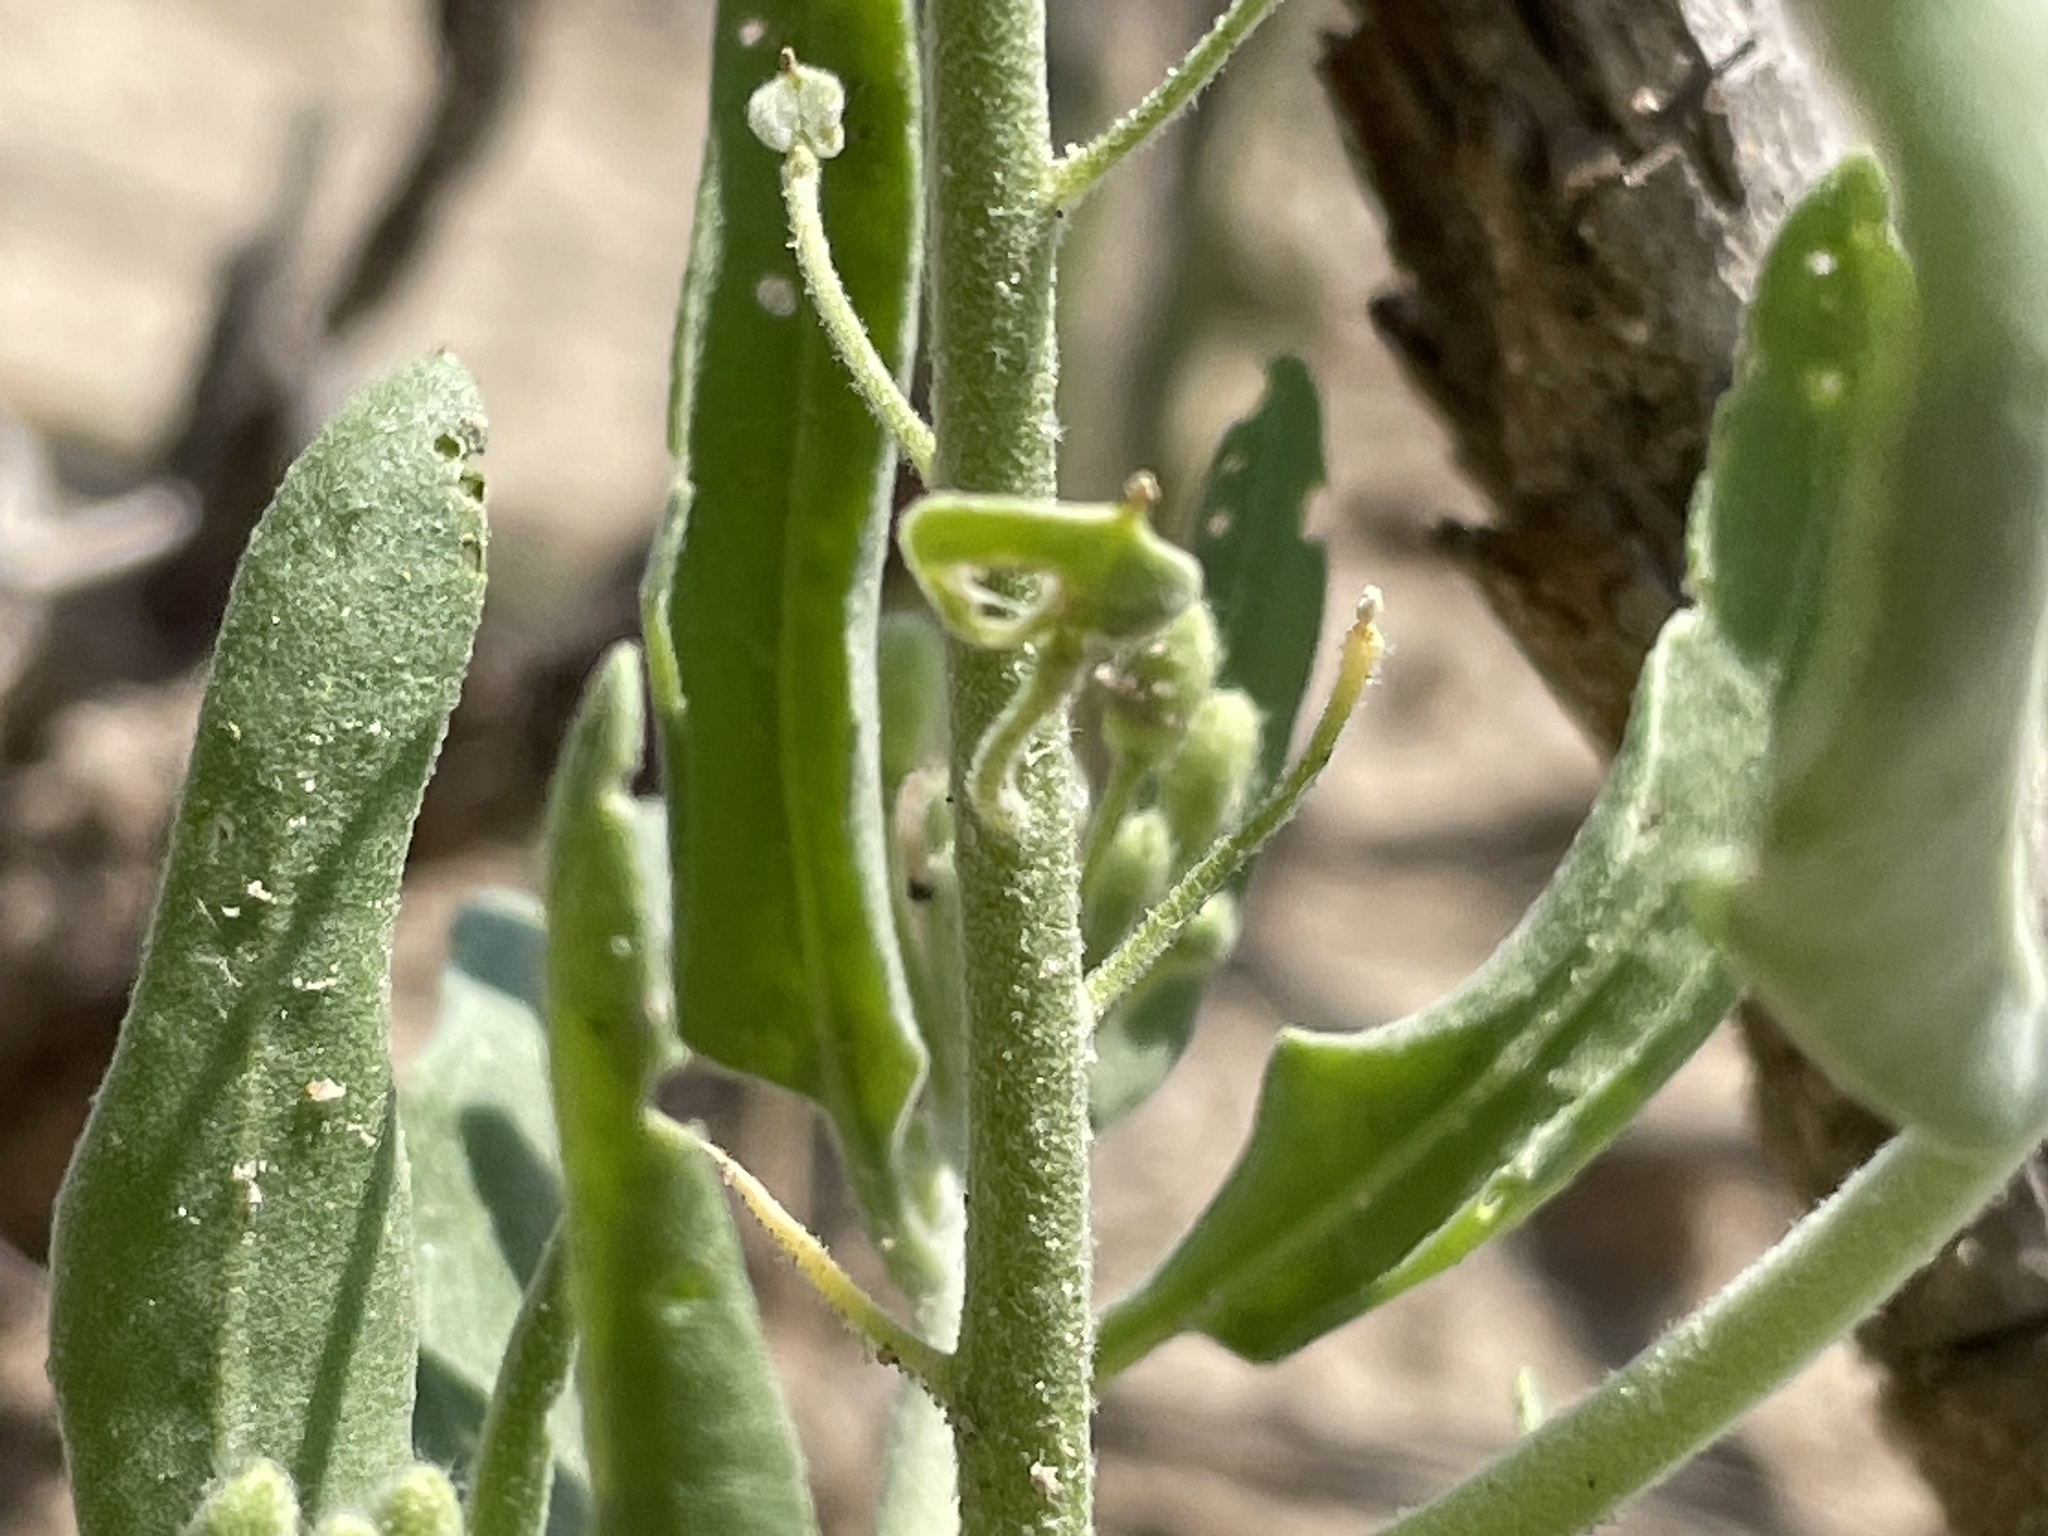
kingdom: Plantae
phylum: Tracheophyta
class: Magnoliopsida
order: Brassicales
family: Brassicaceae
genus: Dimorphocarpa
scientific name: Dimorphocarpa wislizenii
